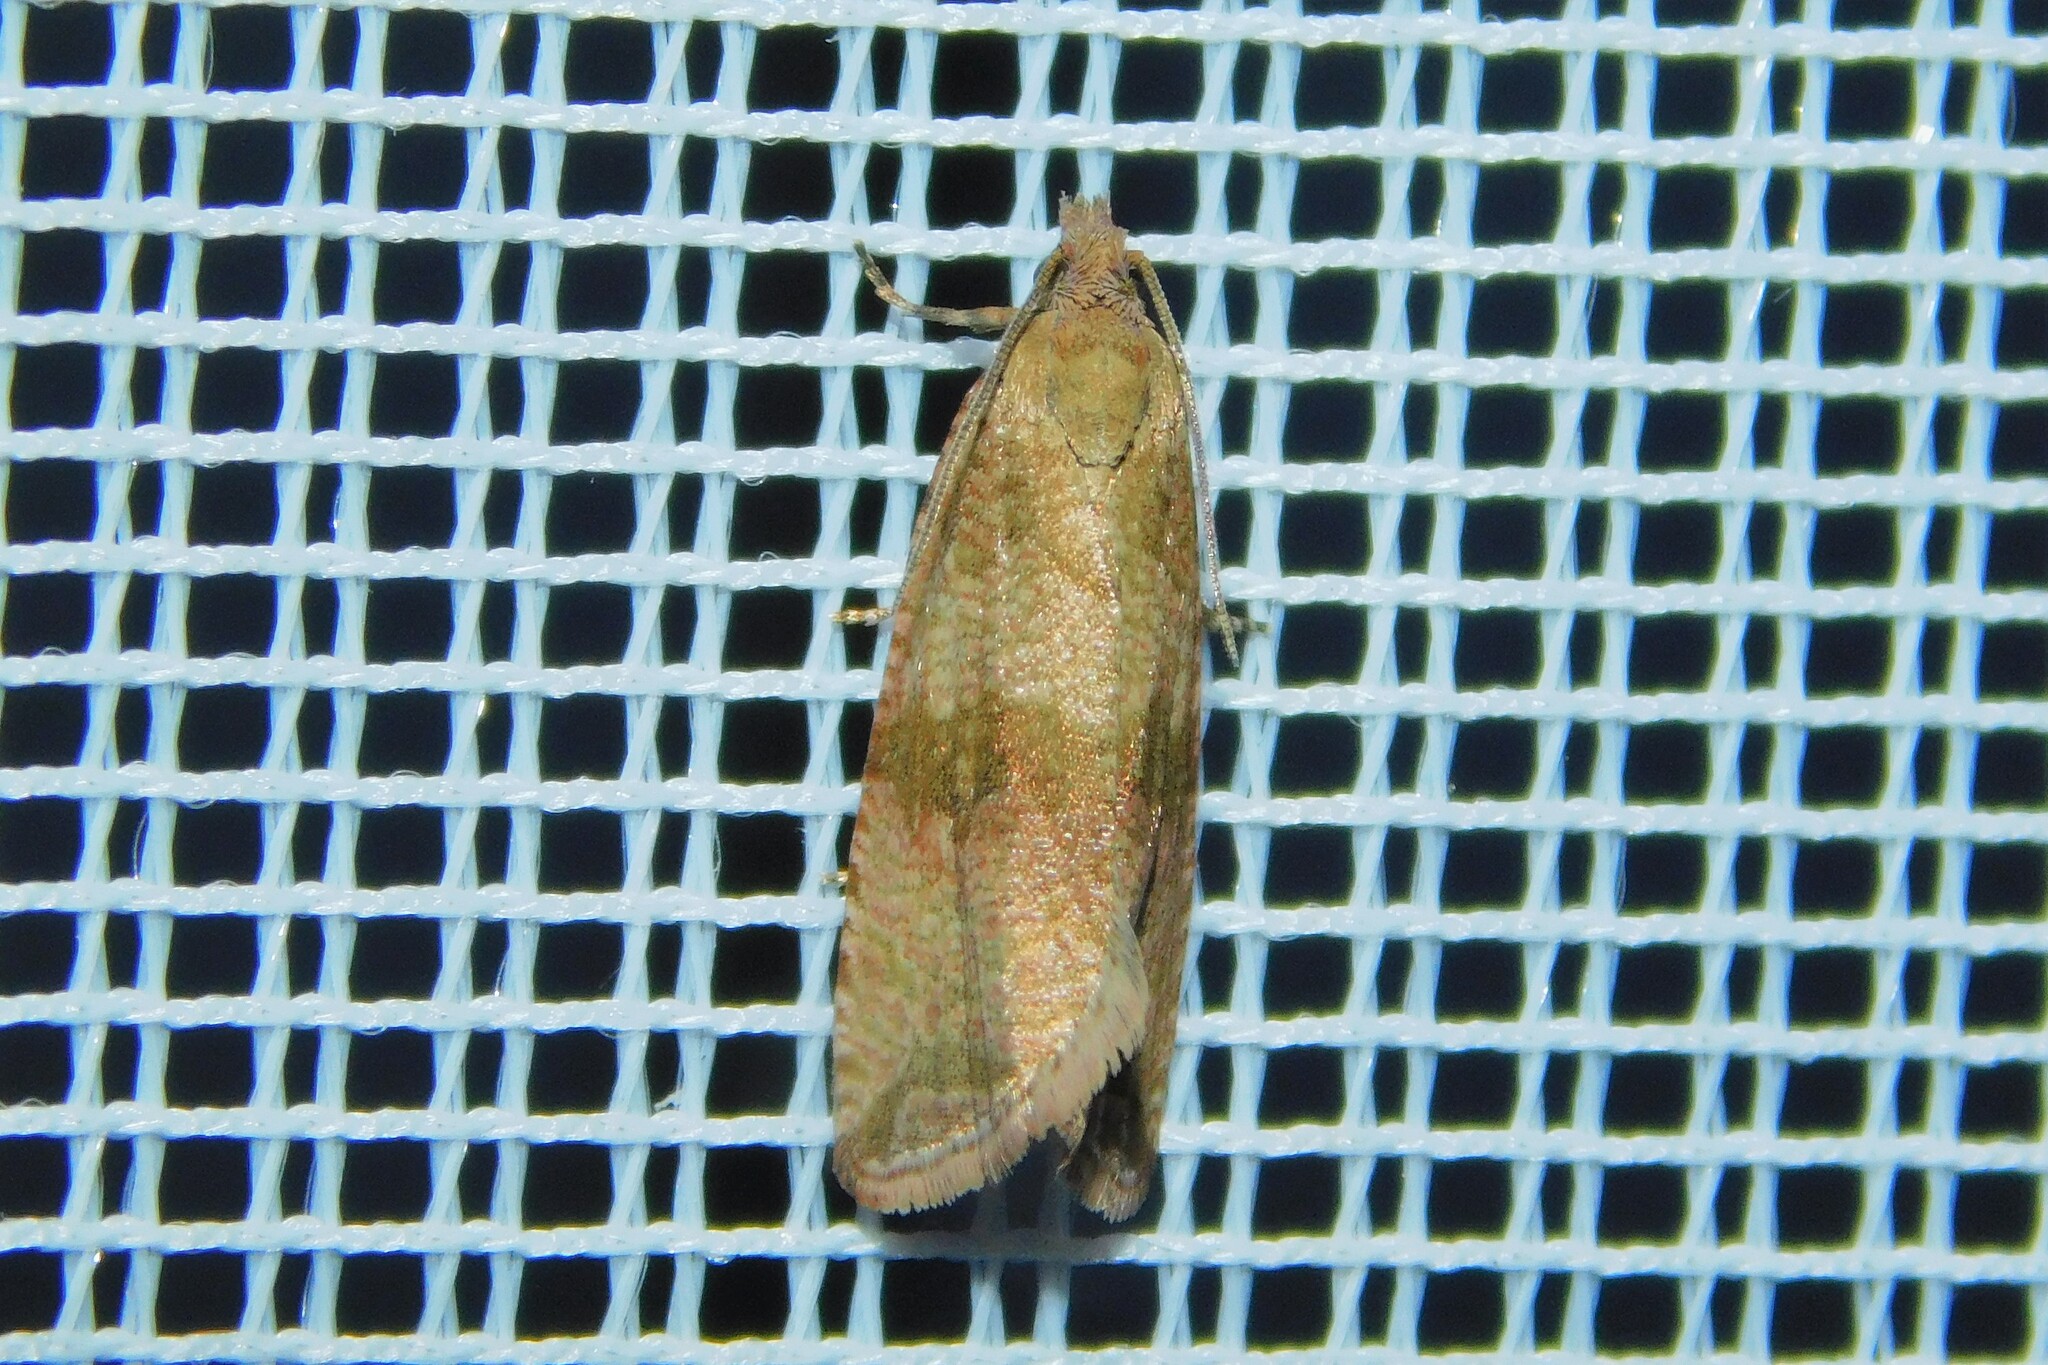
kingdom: Animalia
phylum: Arthropoda
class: Insecta
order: Lepidoptera
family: Tortricidae
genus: Celypha
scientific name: Celypha striana
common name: Barred marble
